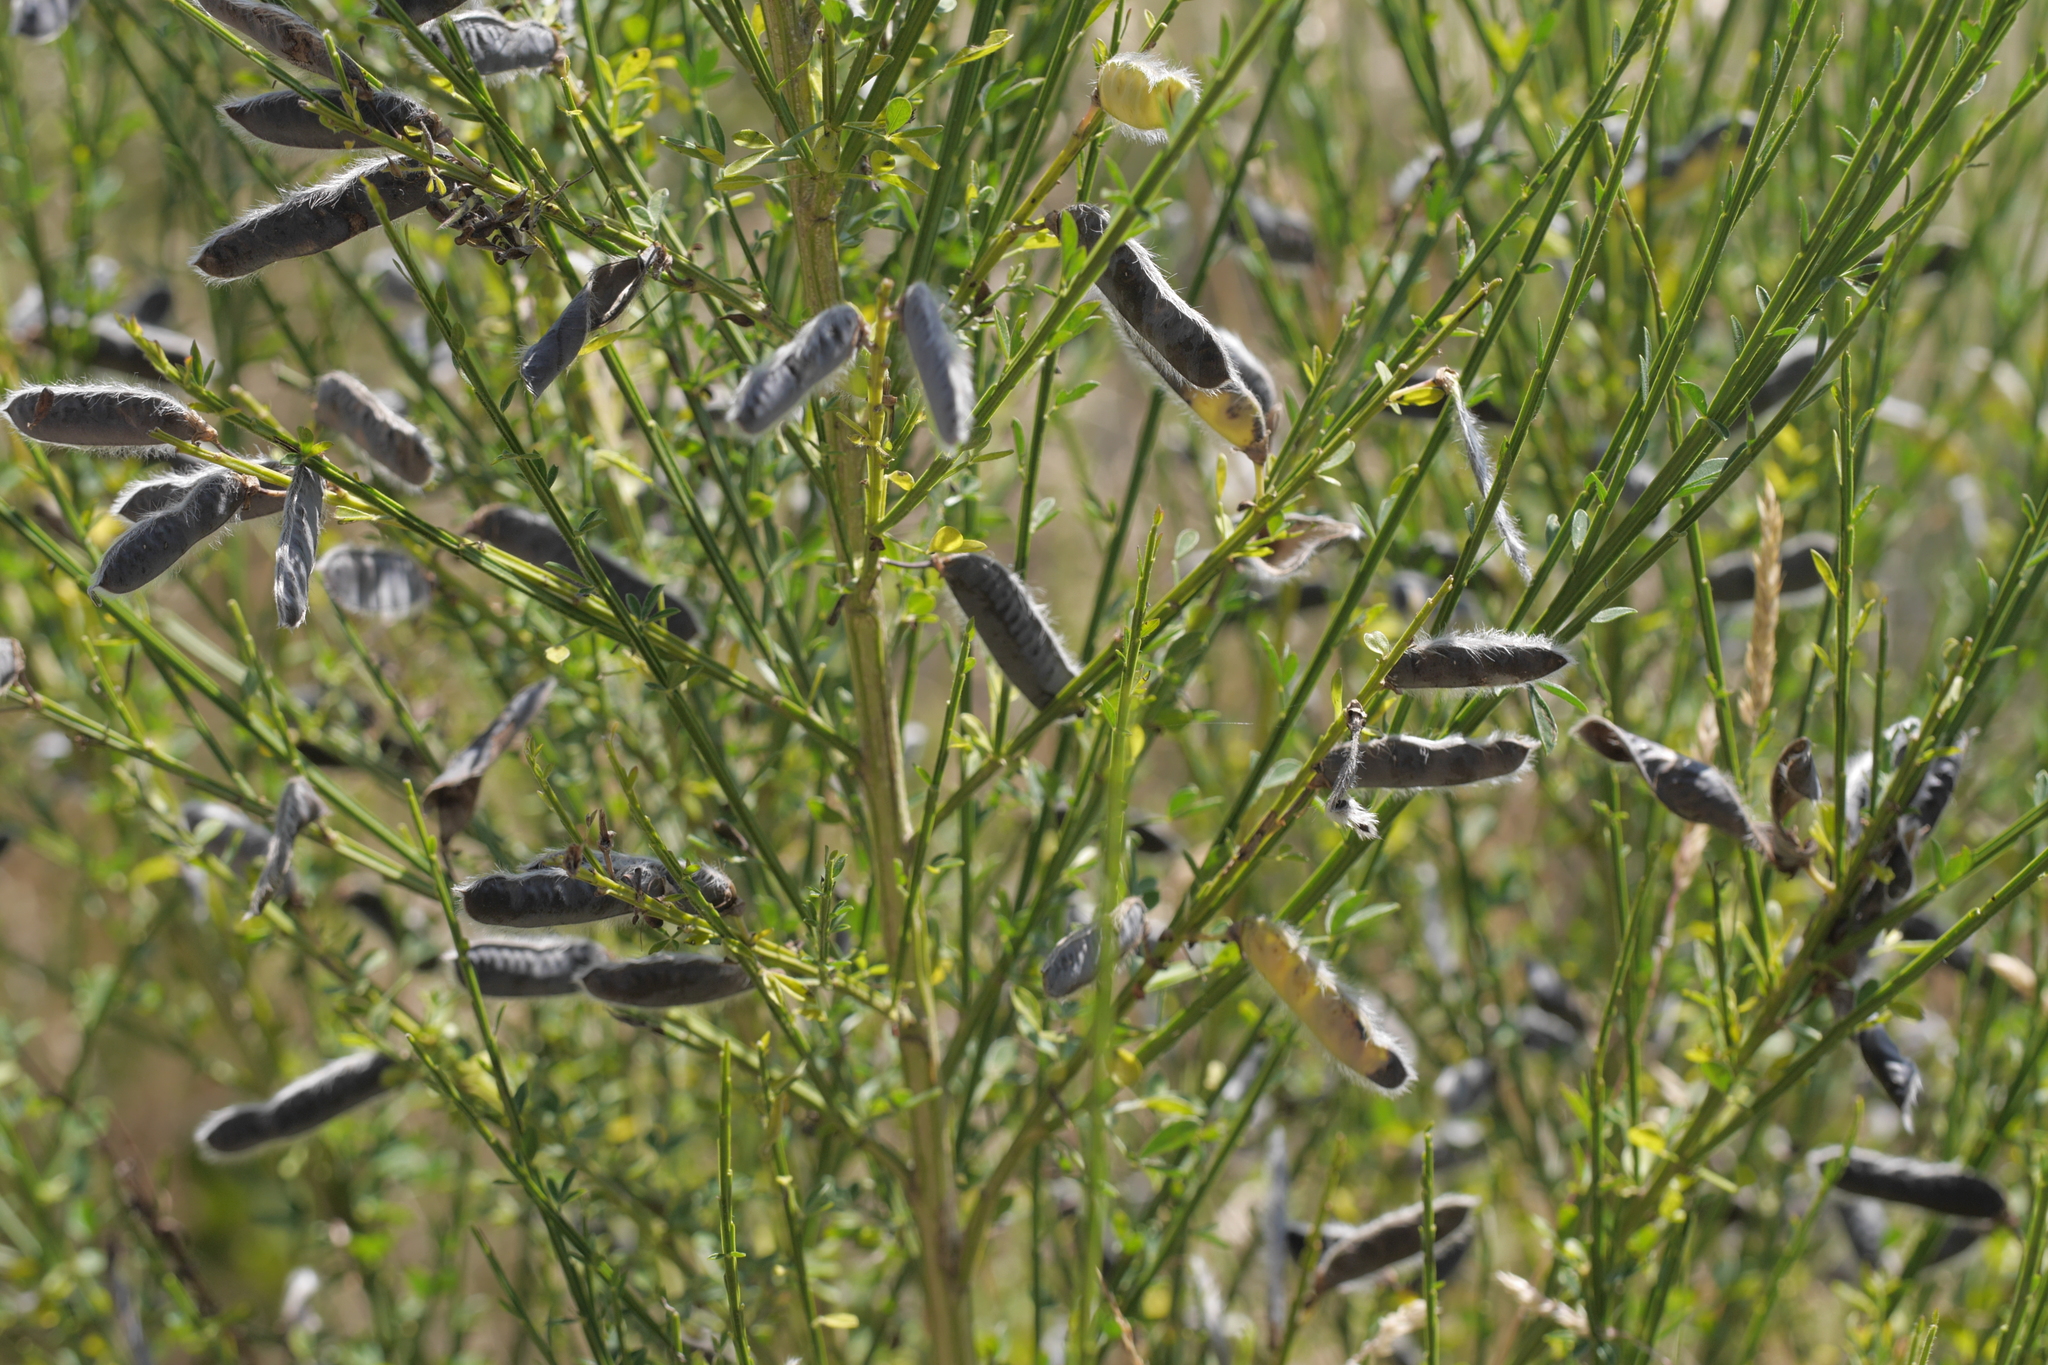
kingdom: Plantae
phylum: Tracheophyta
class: Magnoliopsida
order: Fabales
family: Fabaceae
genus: Cytisus
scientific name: Cytisus scoparius
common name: Scotch broom
